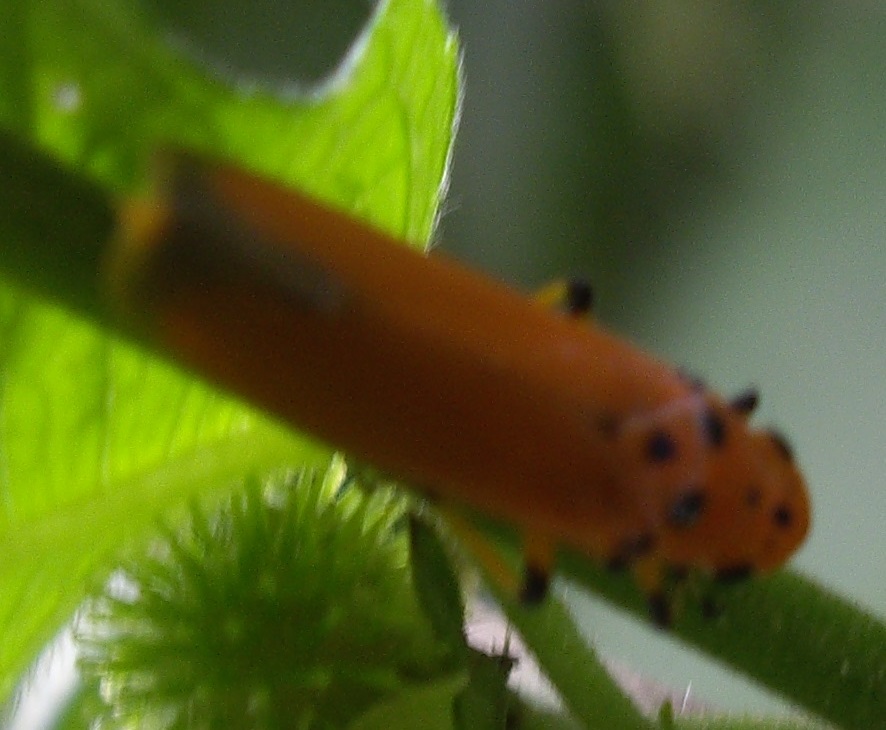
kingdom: Animalia
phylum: Arthropoda
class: Insecta
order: Hemiptera
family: Cicadellidae
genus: Bothrogonia
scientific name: Bothrogonia addita
